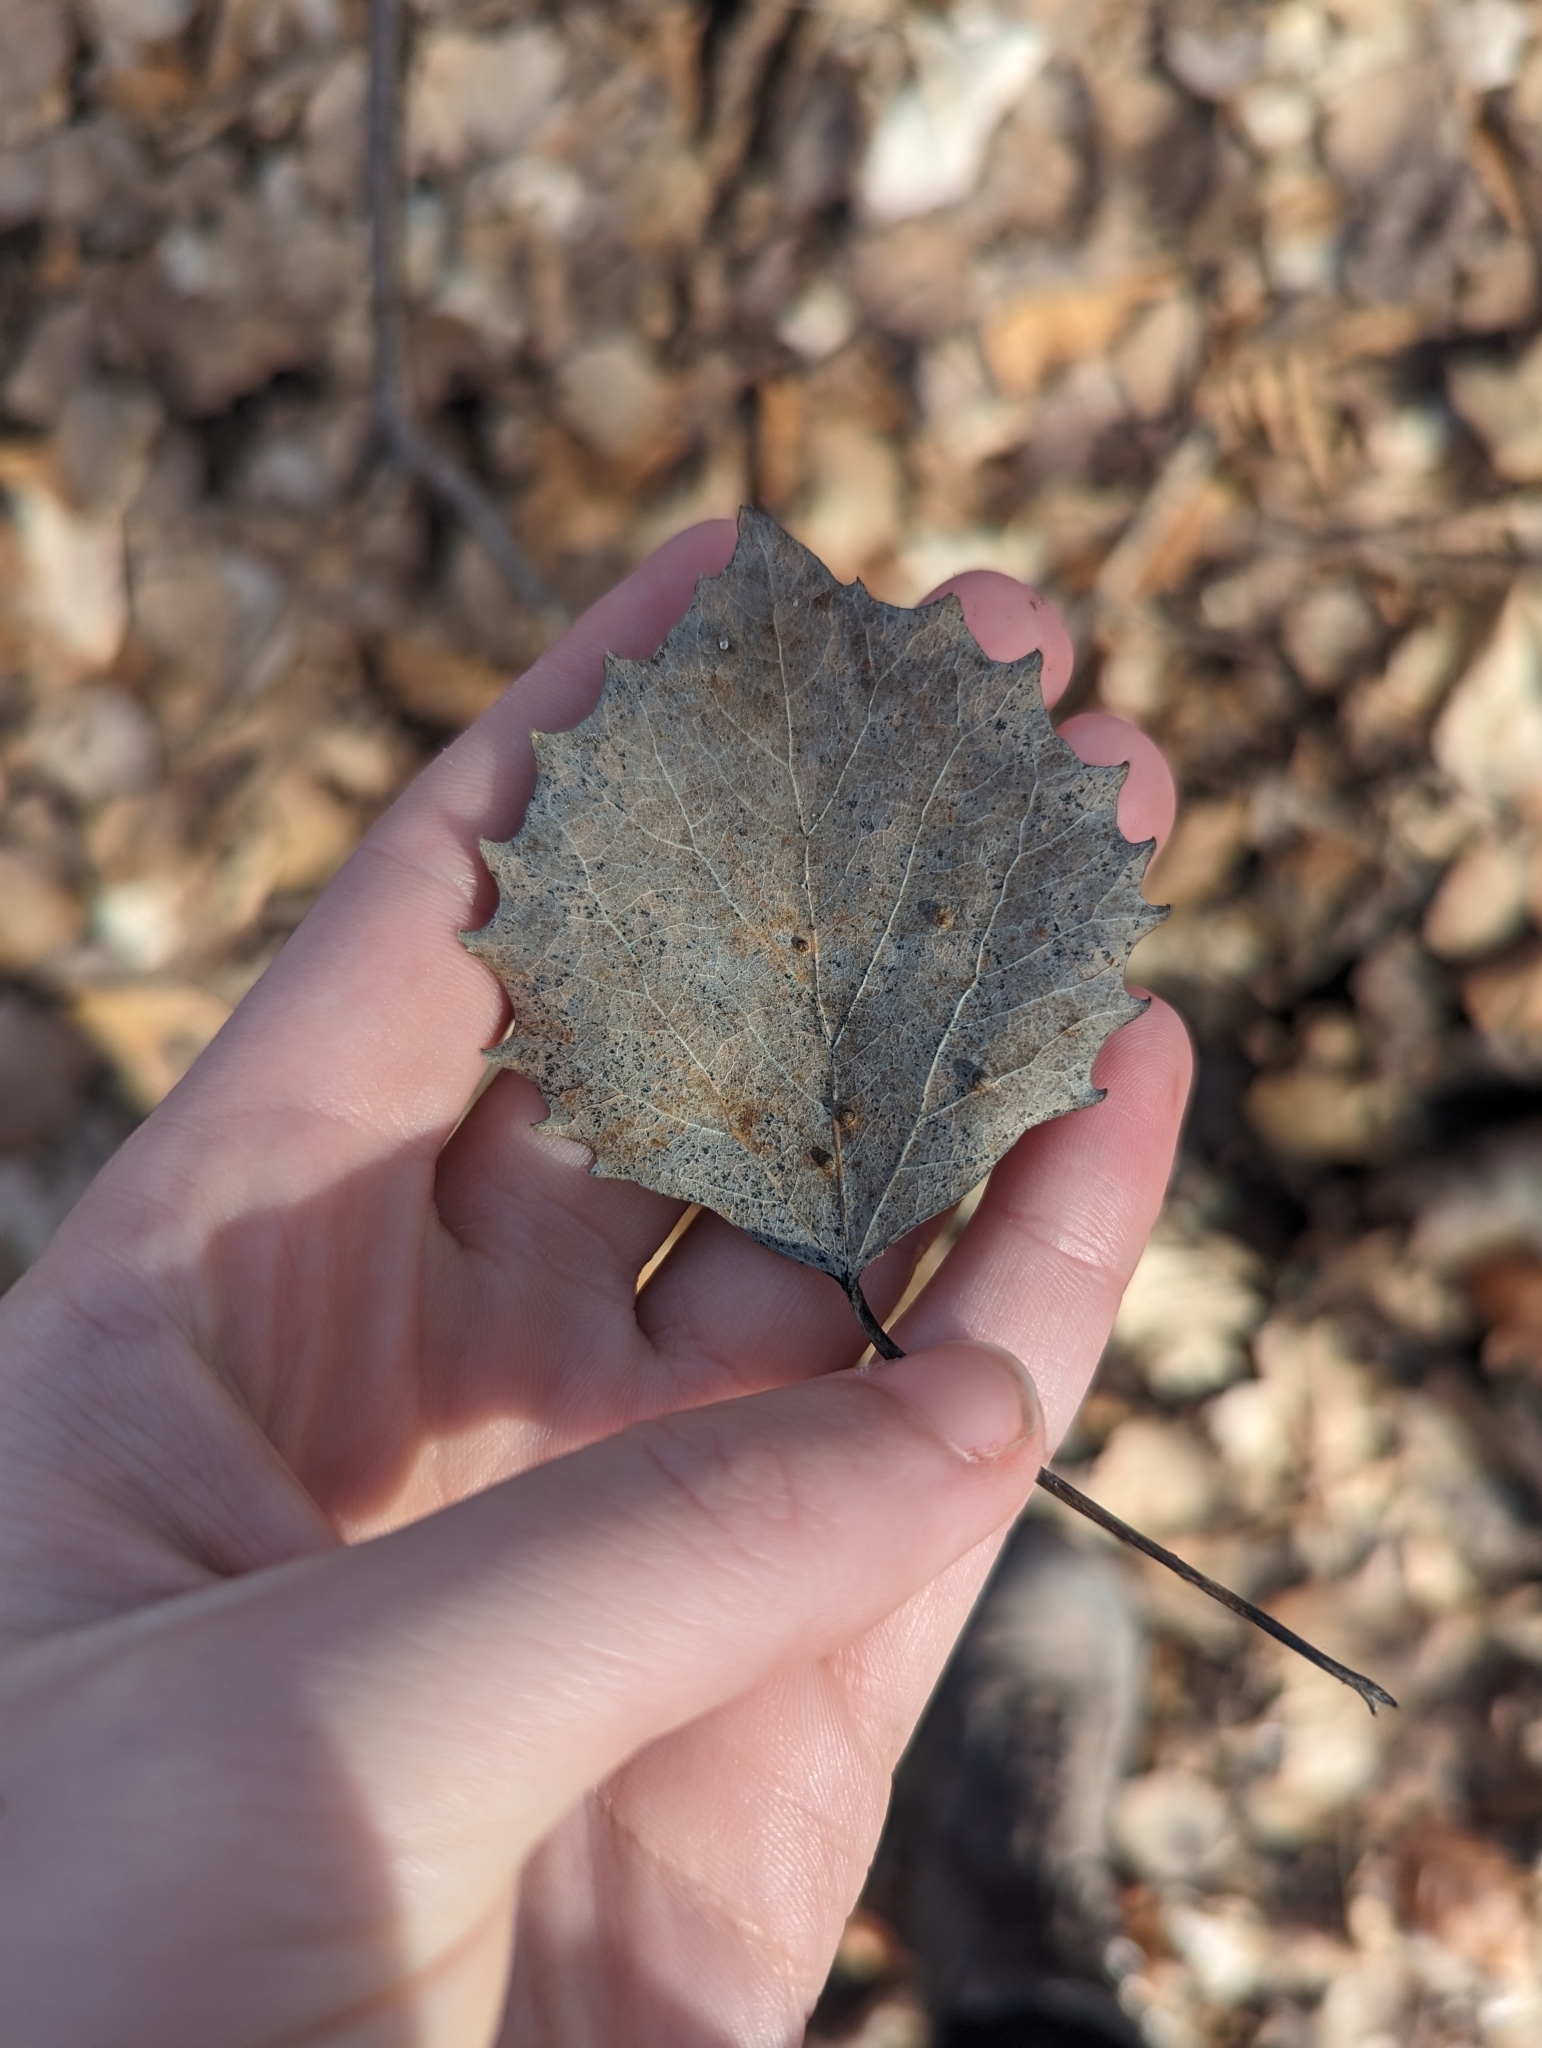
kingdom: Plantae
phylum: Tracheophyta
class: Magnoliopsida
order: Malpighiales
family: Salicaceae
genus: Populus
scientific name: Populus grandidentata
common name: Bigtooth aspen
